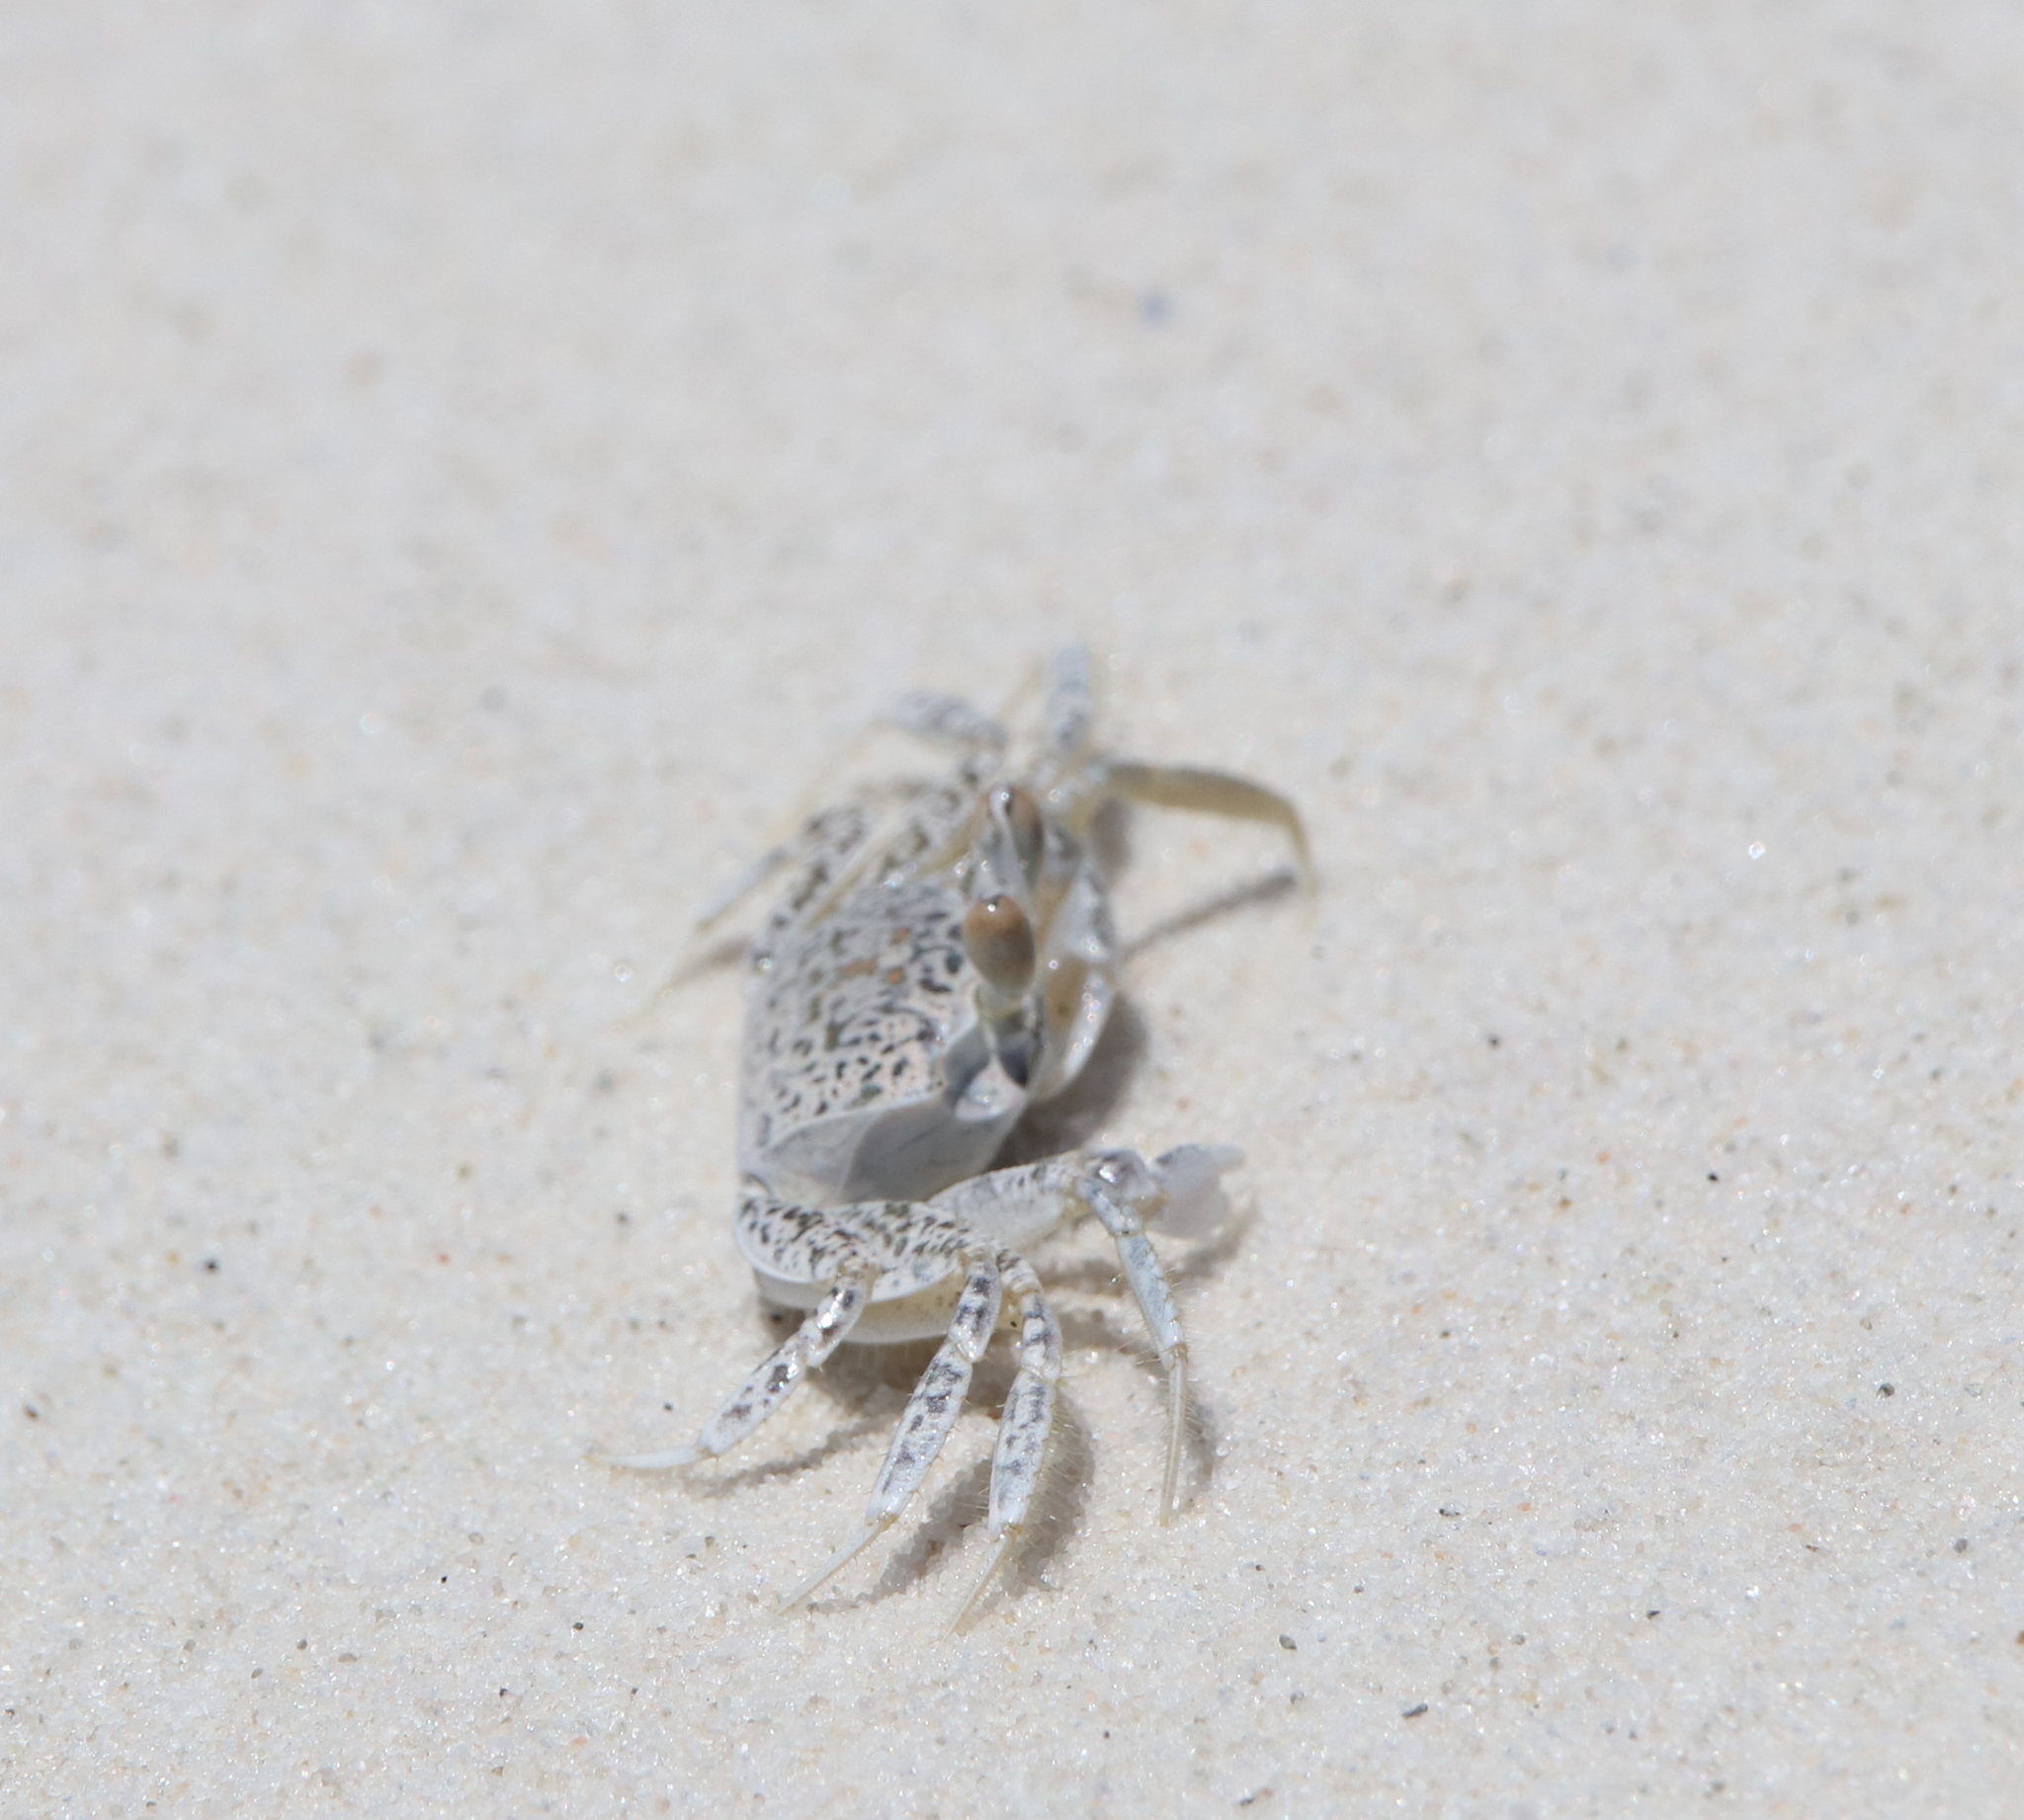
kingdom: Animalia
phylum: Arthropoda
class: Malacostraca
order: Decapoda
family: Ocypodidae
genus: Ocypode
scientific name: Ocypode quadrata
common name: Ghost crab
